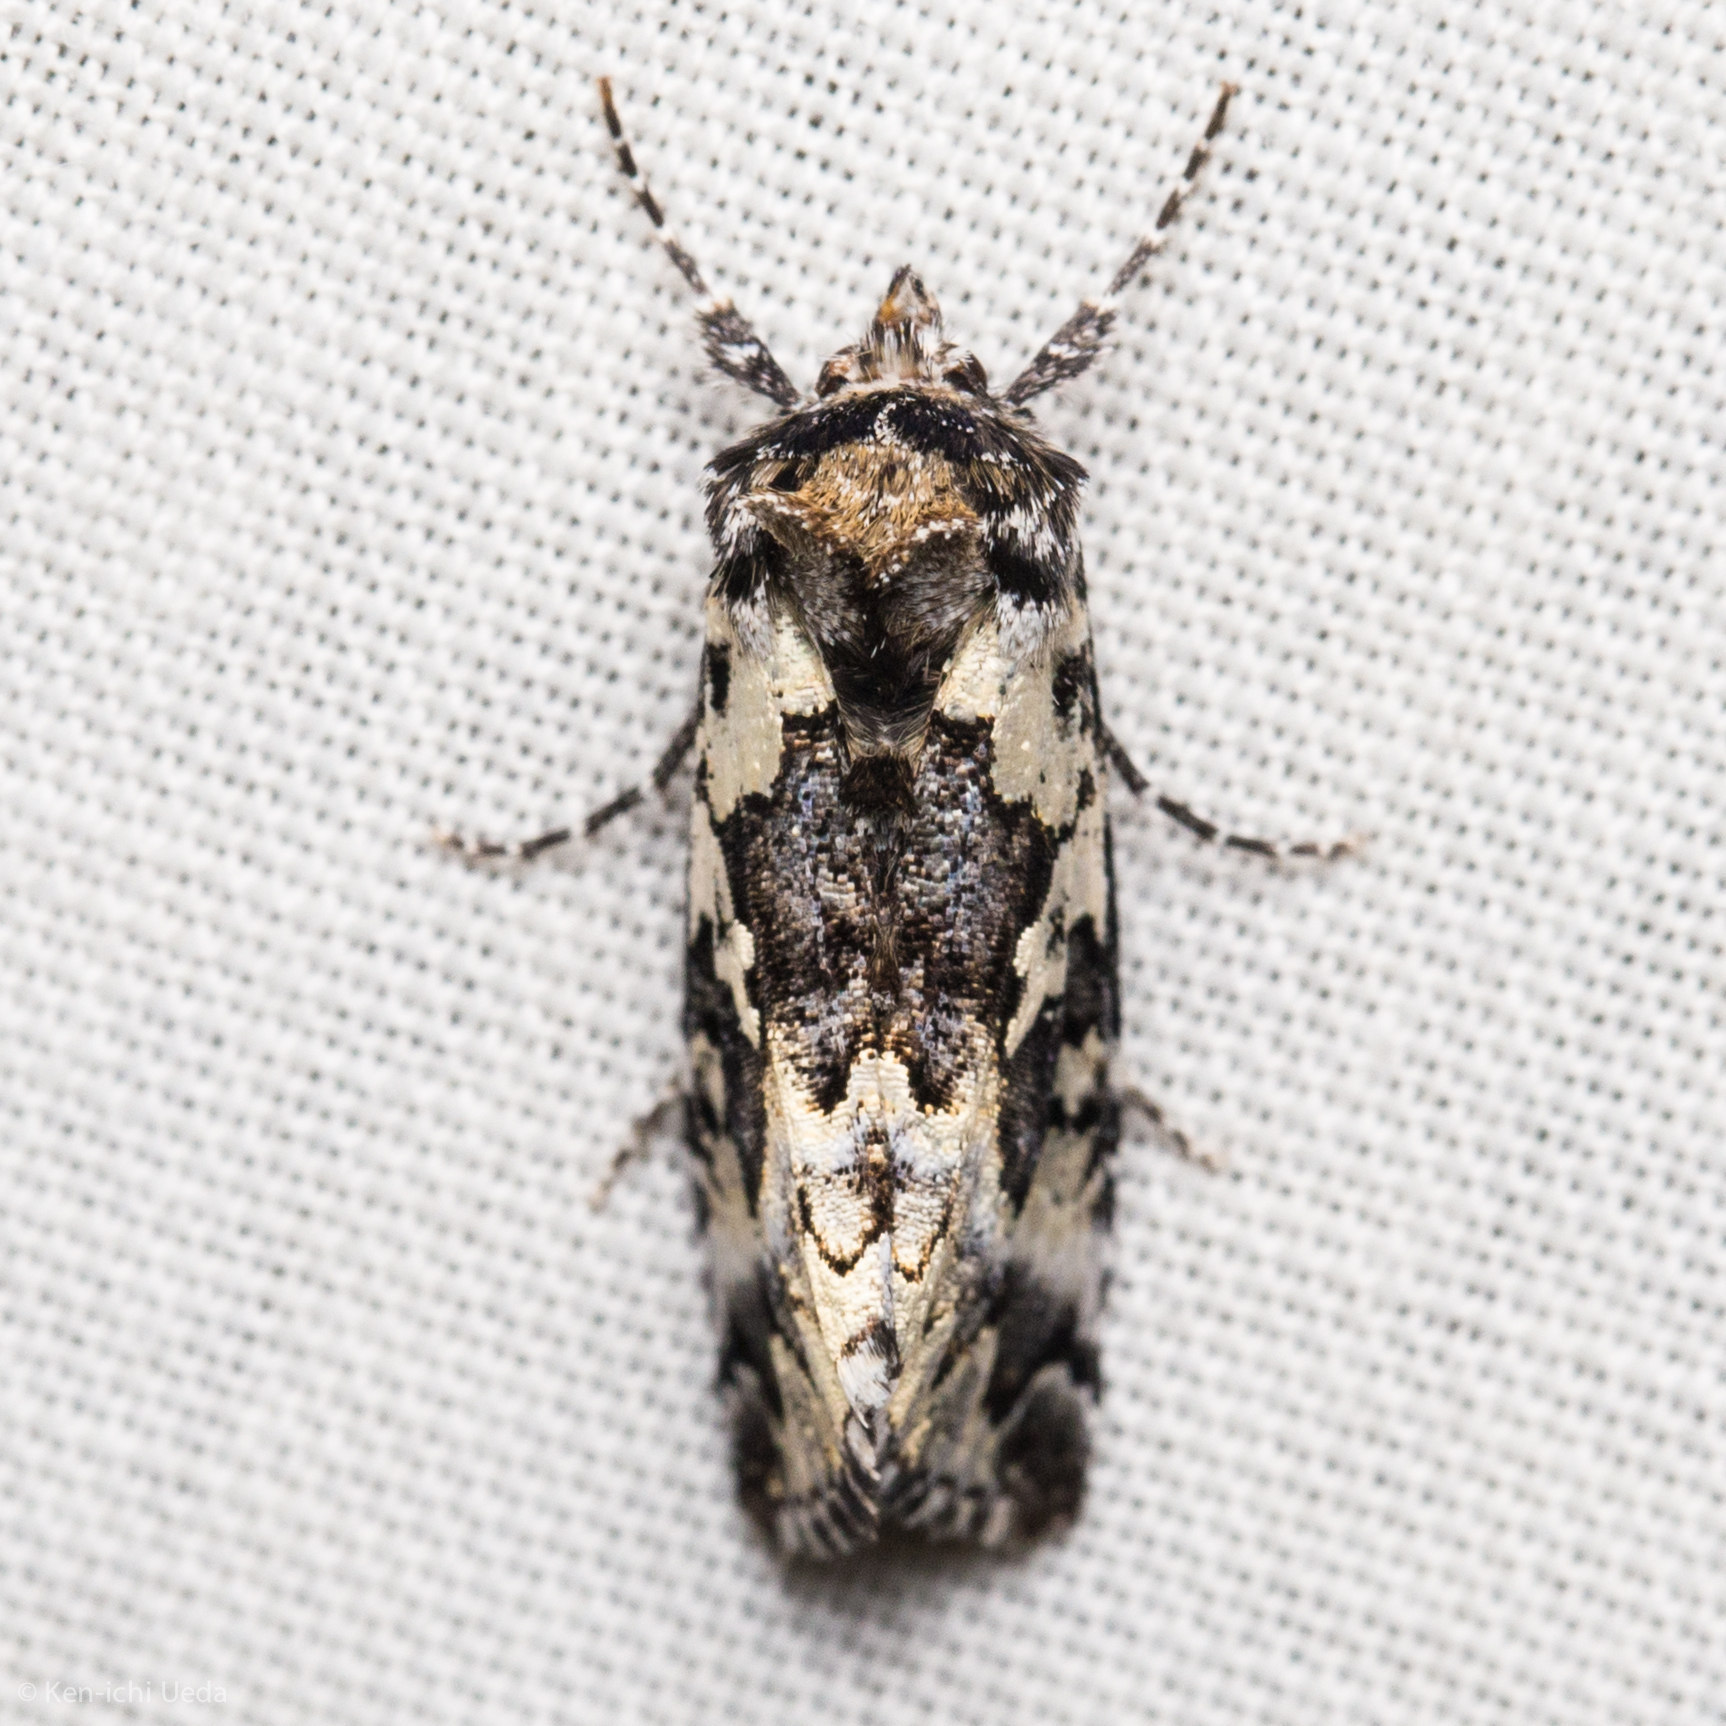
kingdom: Animalia
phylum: Arthropoda
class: Insecta
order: Lepidoptera
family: Noctuidae
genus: Syngrapha
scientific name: Syngrapha rectangula
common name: Angulated cutworm
